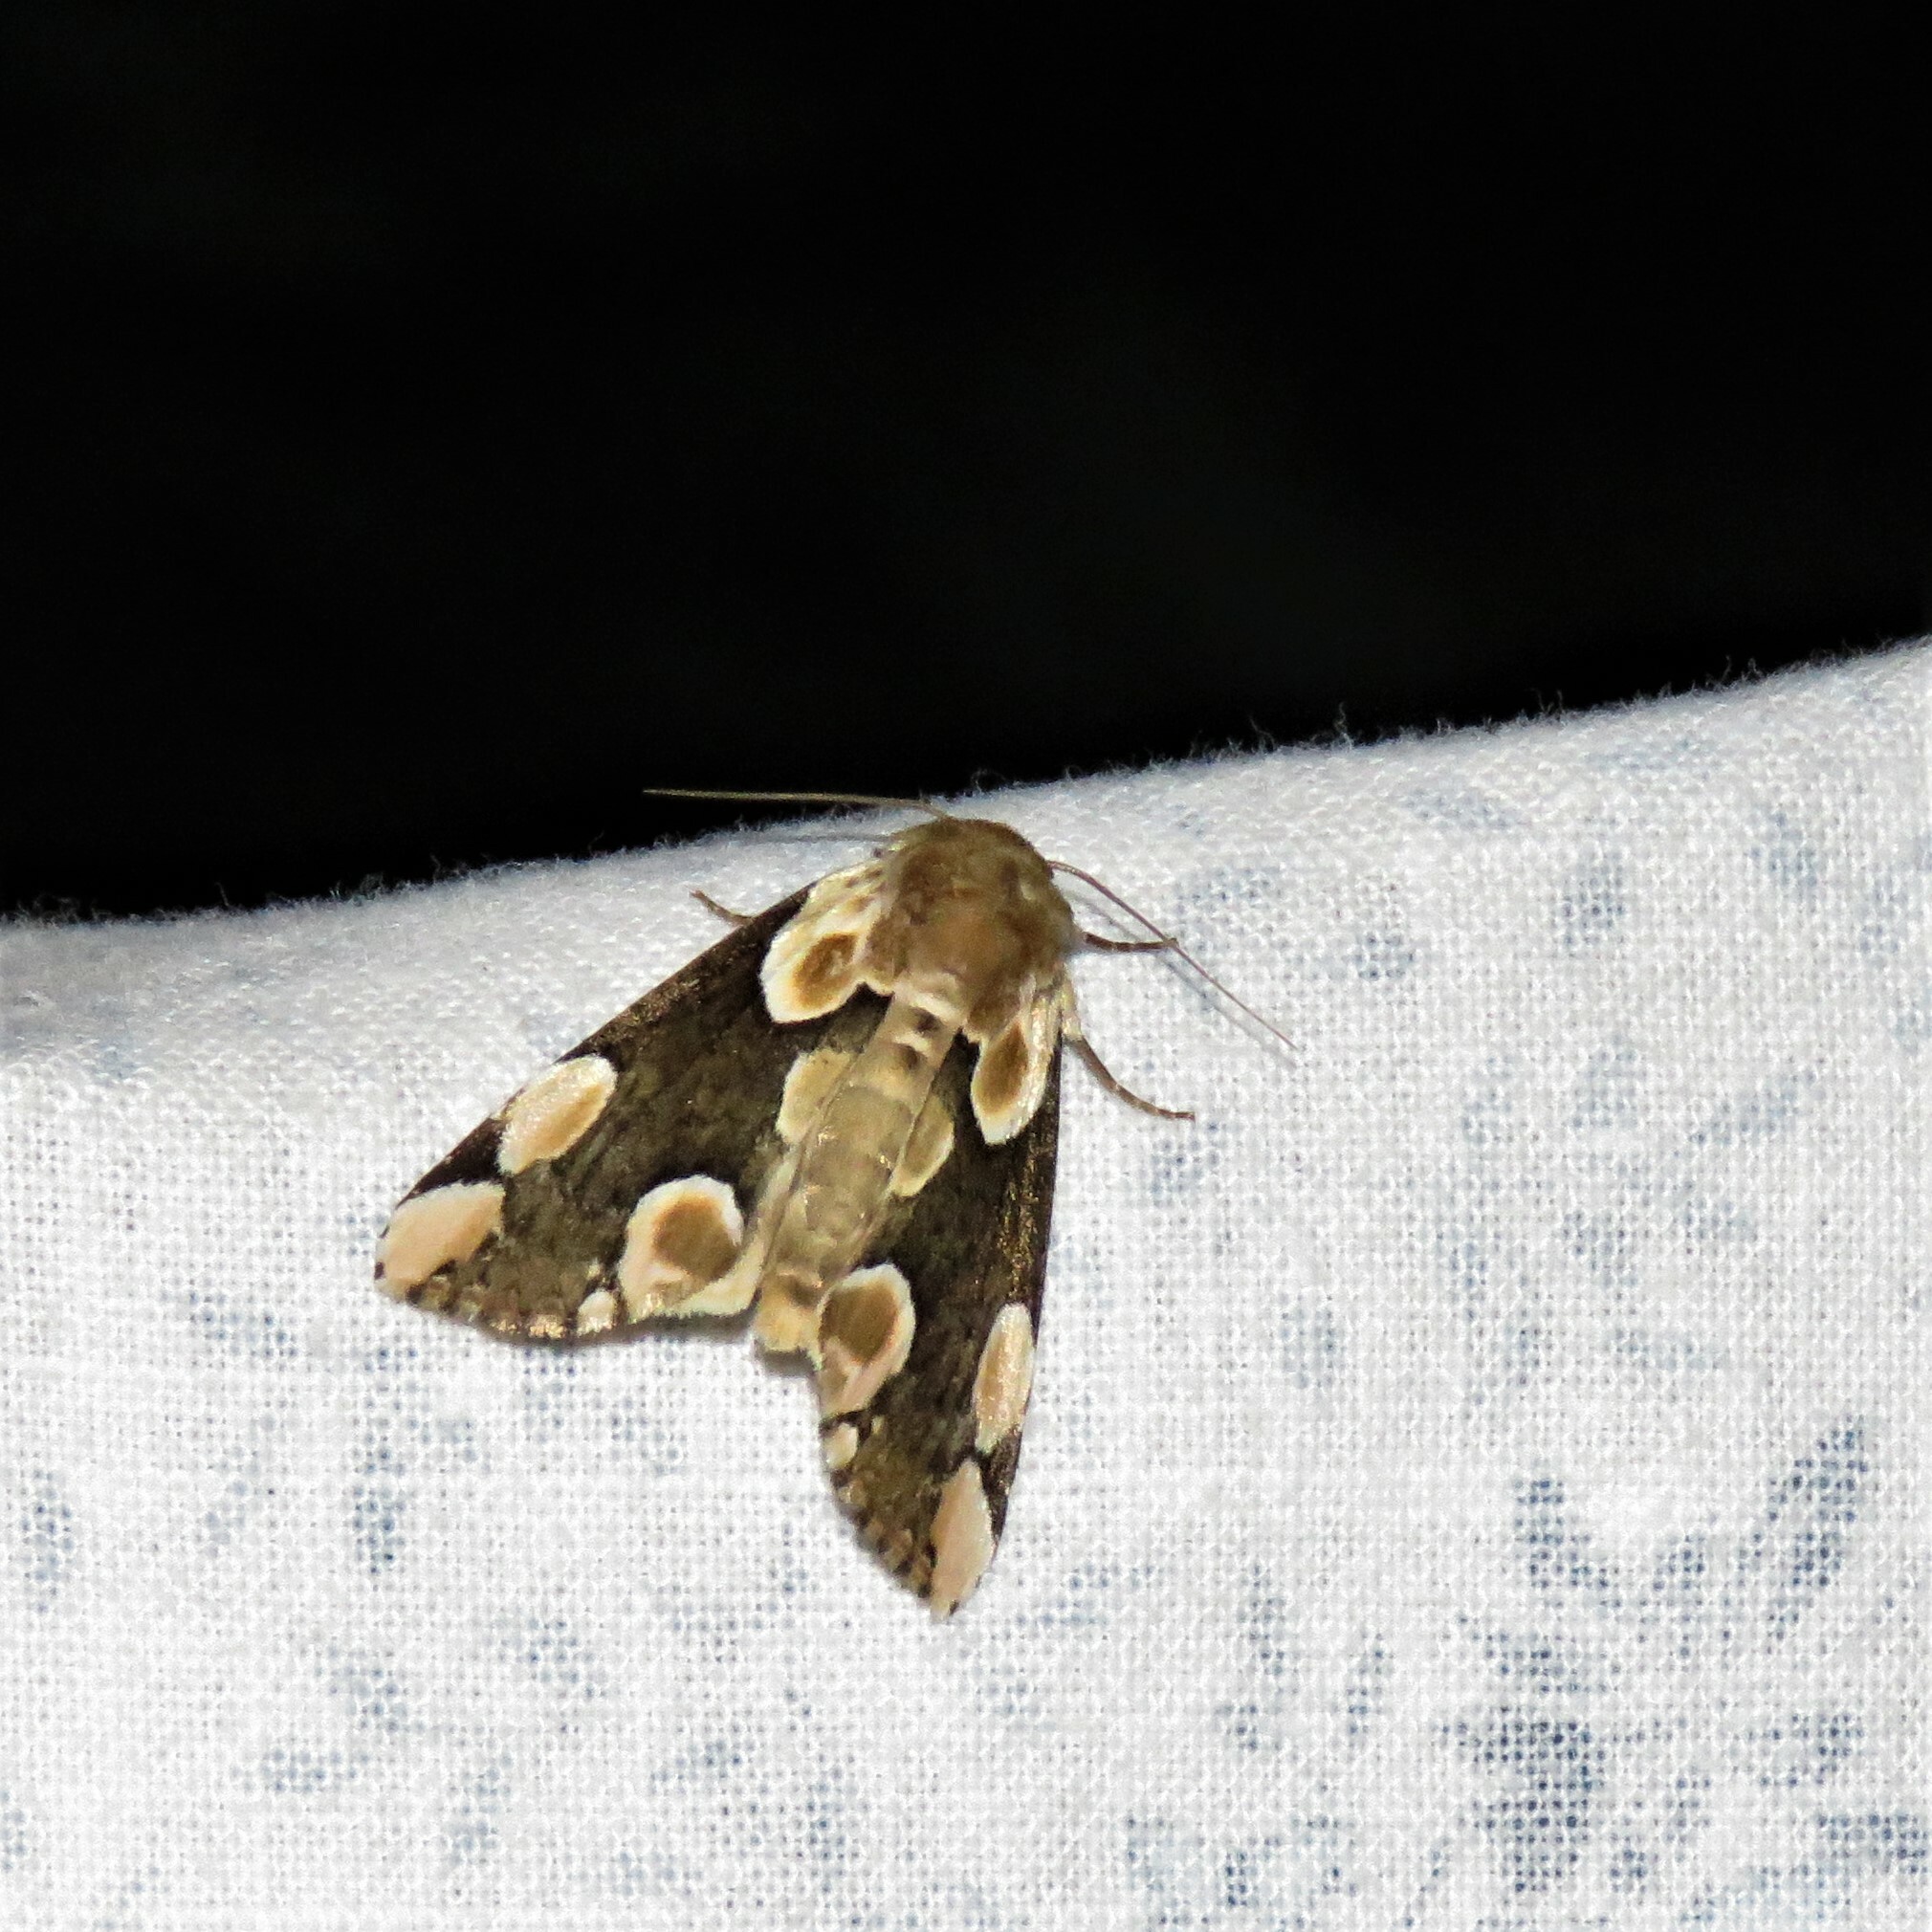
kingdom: Animalia
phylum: Arthropoda
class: Insecta
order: Lepidoptera
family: Drepanidae
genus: Thyatira
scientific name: Thyatira batis
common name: Peach blossom
